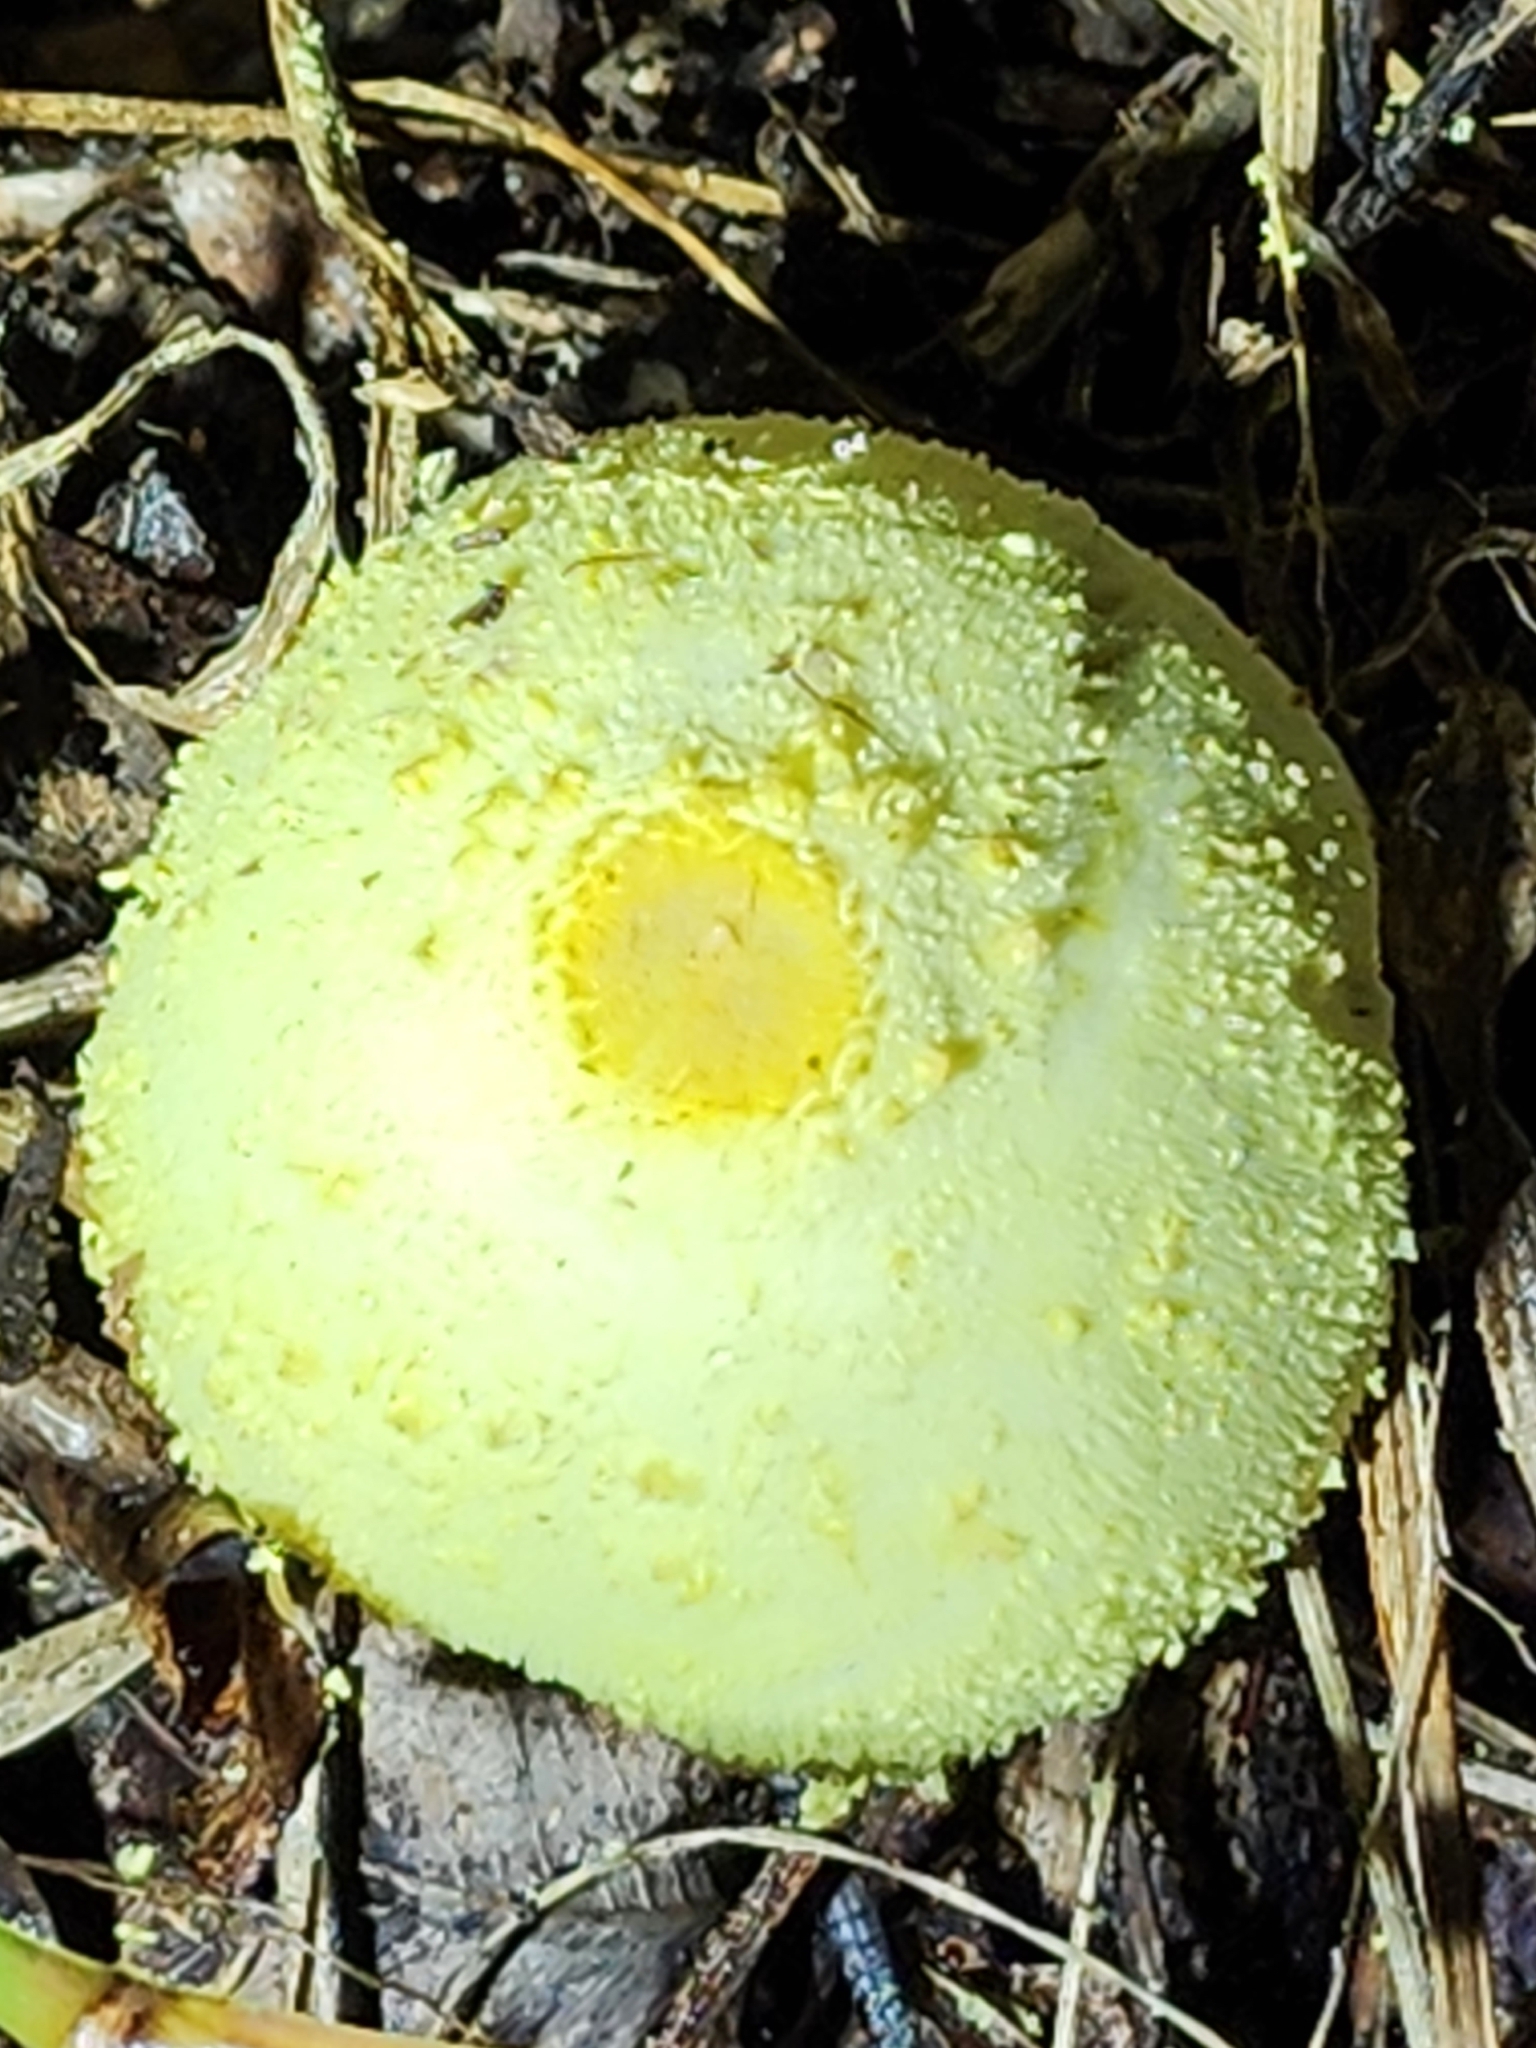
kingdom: Fungi
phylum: Basidiomycota
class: Agaricomycetes
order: Agaricales
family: Agaricaceae
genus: Leucocoprinus
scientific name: Leucocoprinus birnbaumii
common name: Plantpot dapperling
